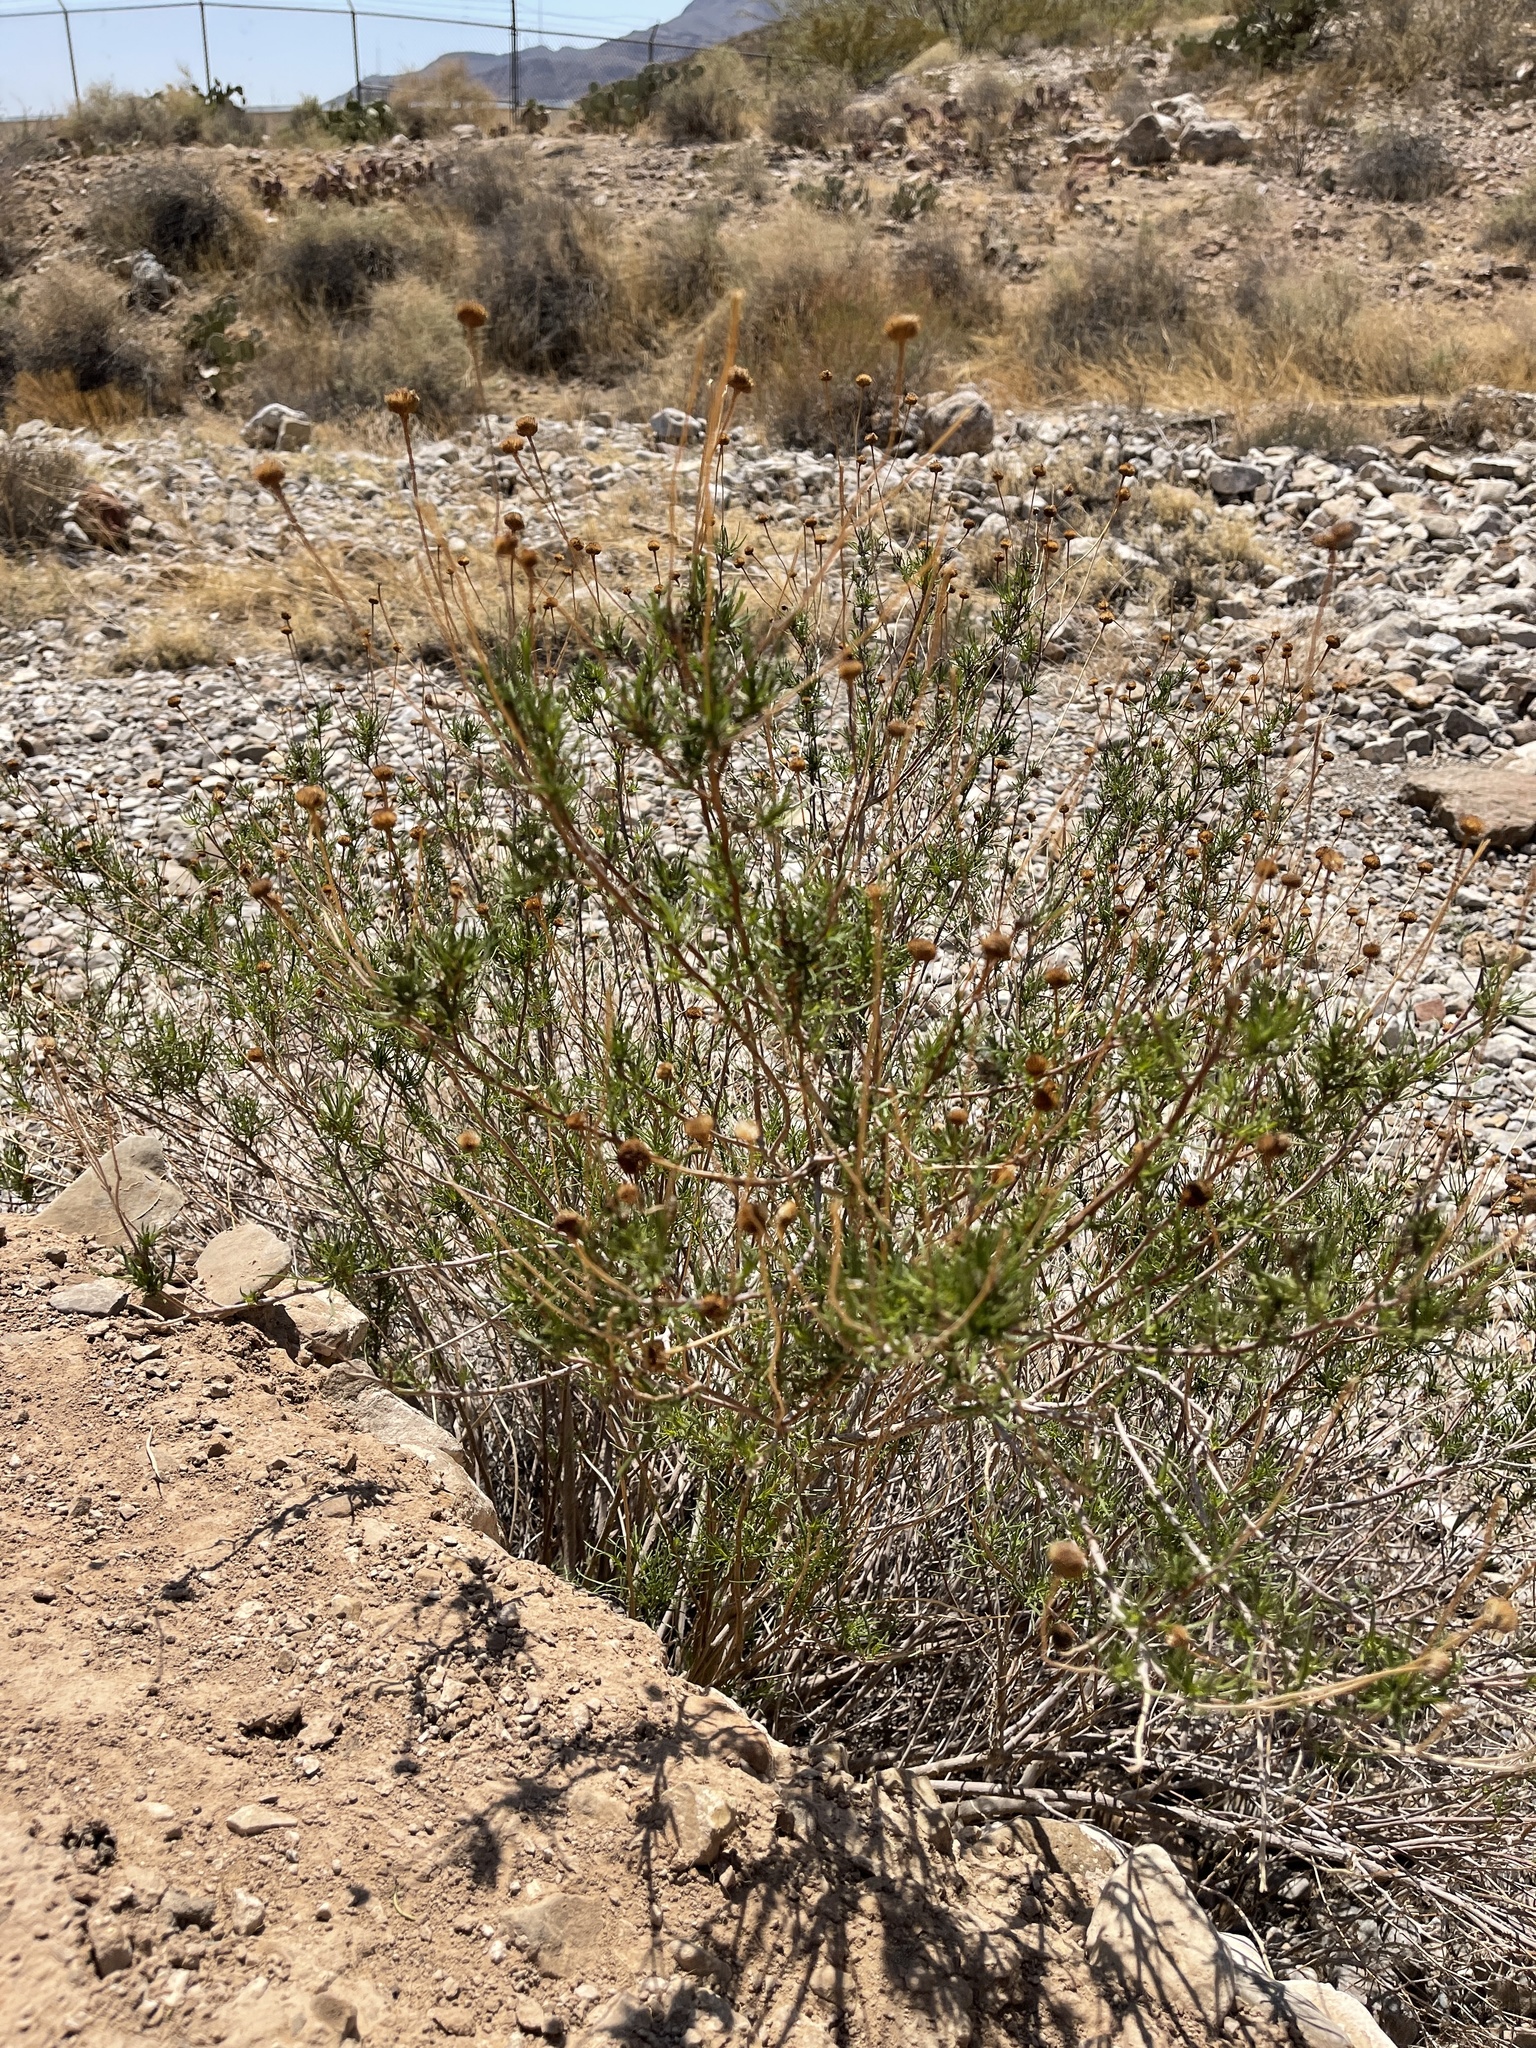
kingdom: Plantae
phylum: Tracheophyta
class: Magnoliopsida
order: Asterales
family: Asteraceae
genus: Sidneya
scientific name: Sidneya tenuifolia
